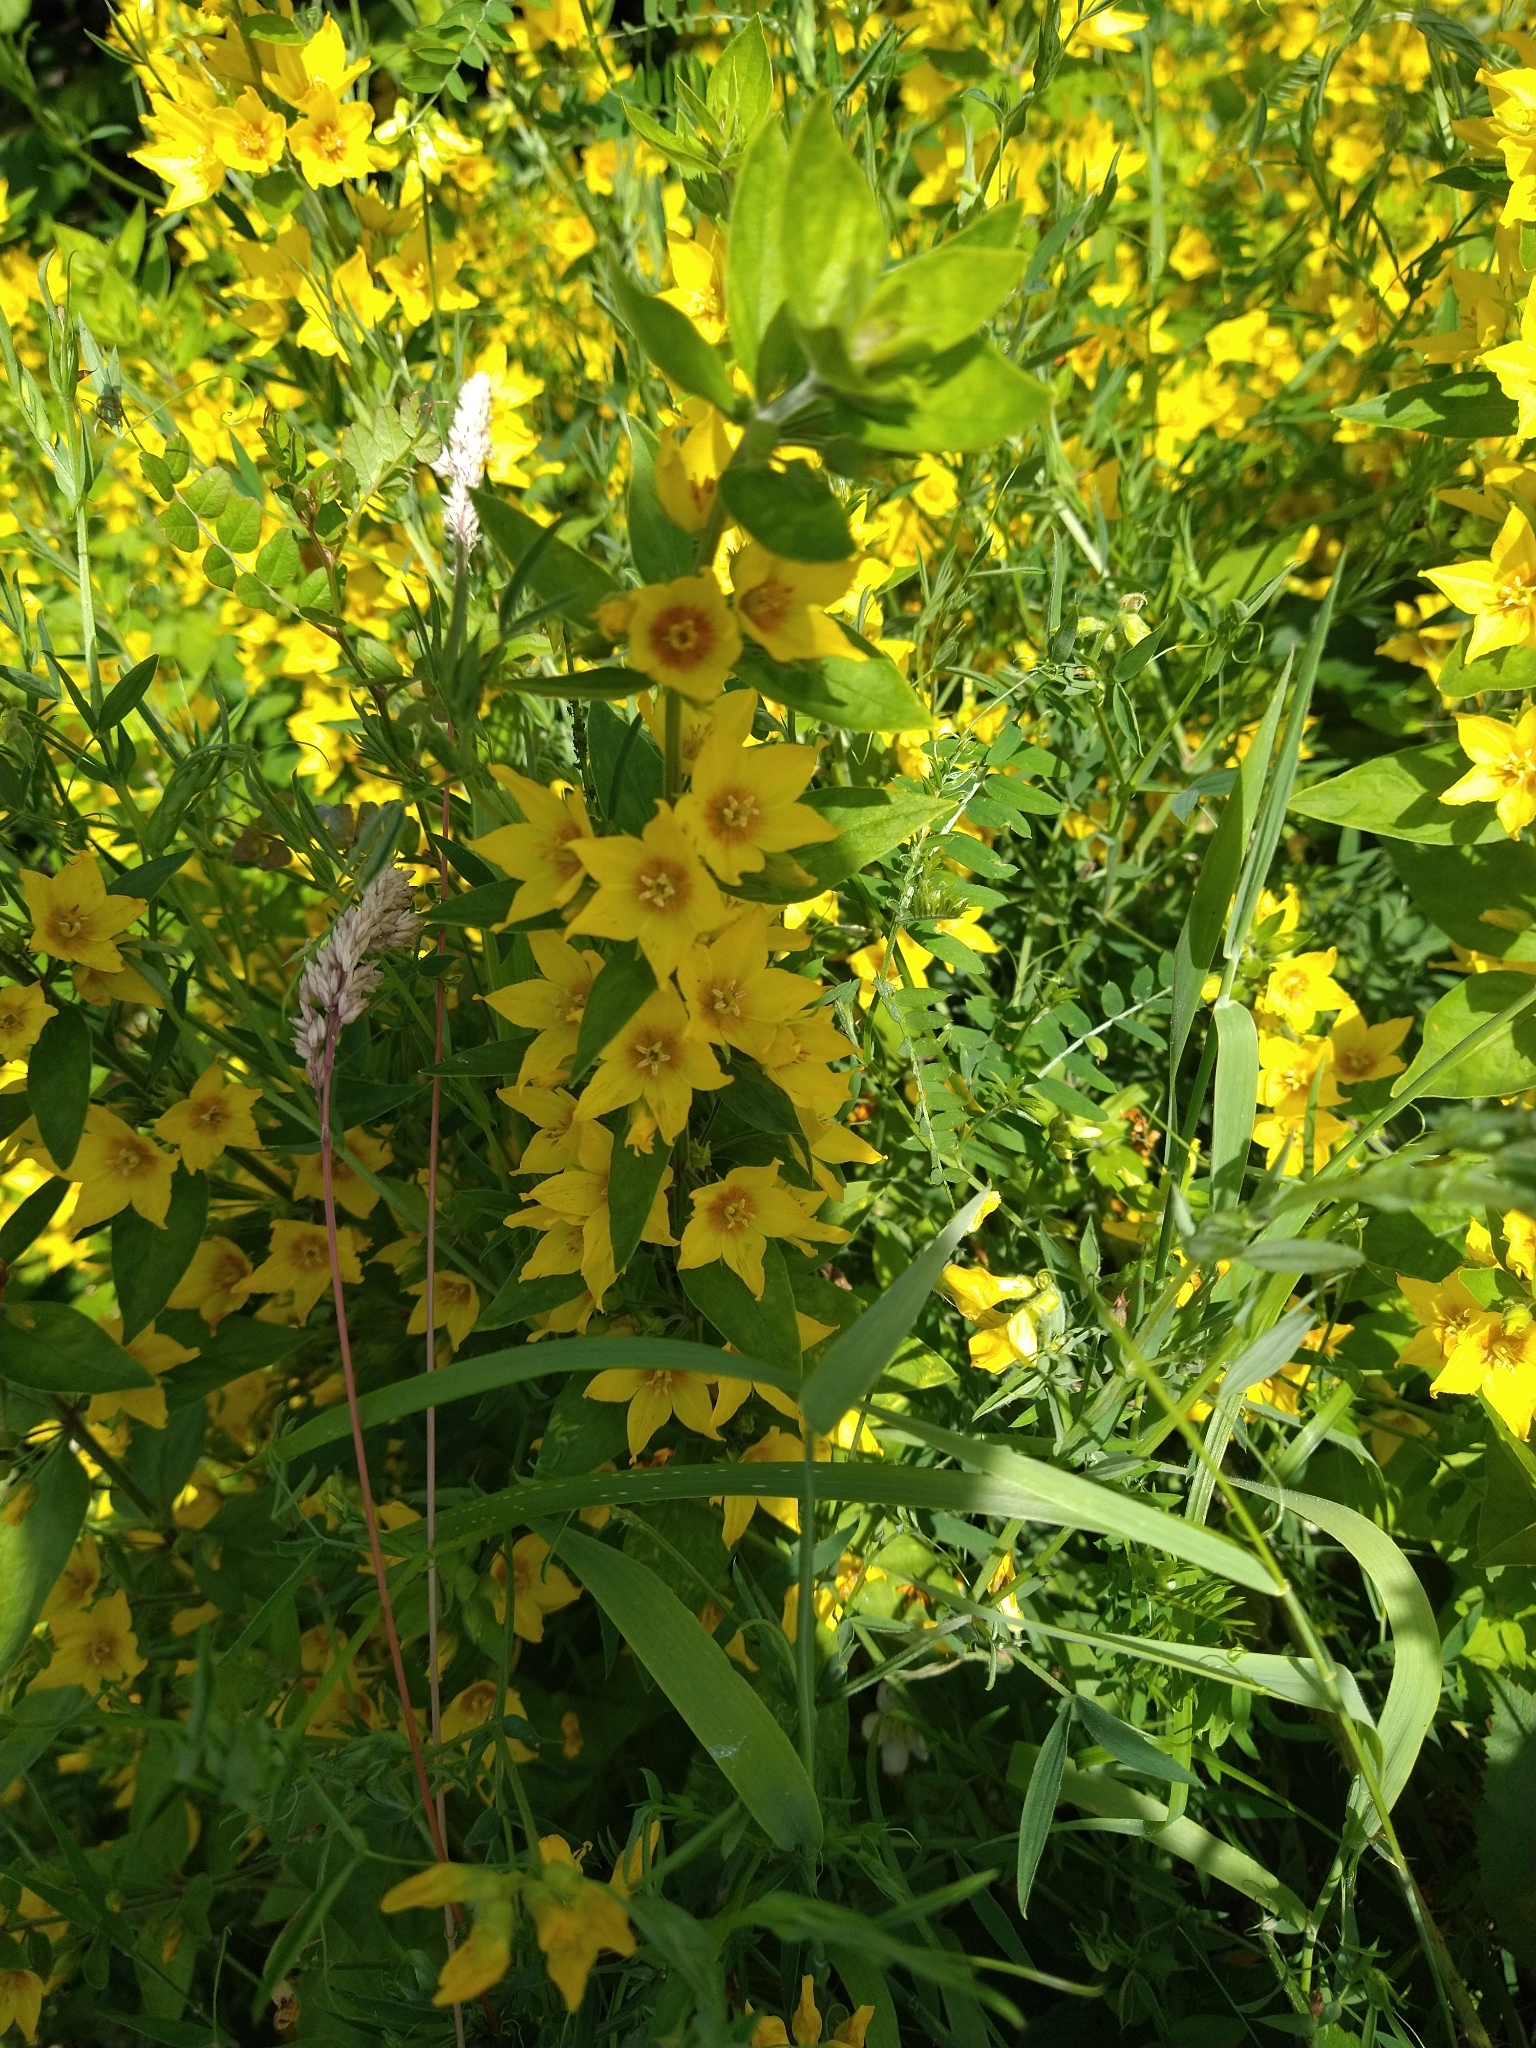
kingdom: Plantae
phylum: Tracheophyta
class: Magnoliopsida
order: Ericales
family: Primulaceae
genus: Lysimachia
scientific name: Lysimachia punctata
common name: Dotted loosestrife
